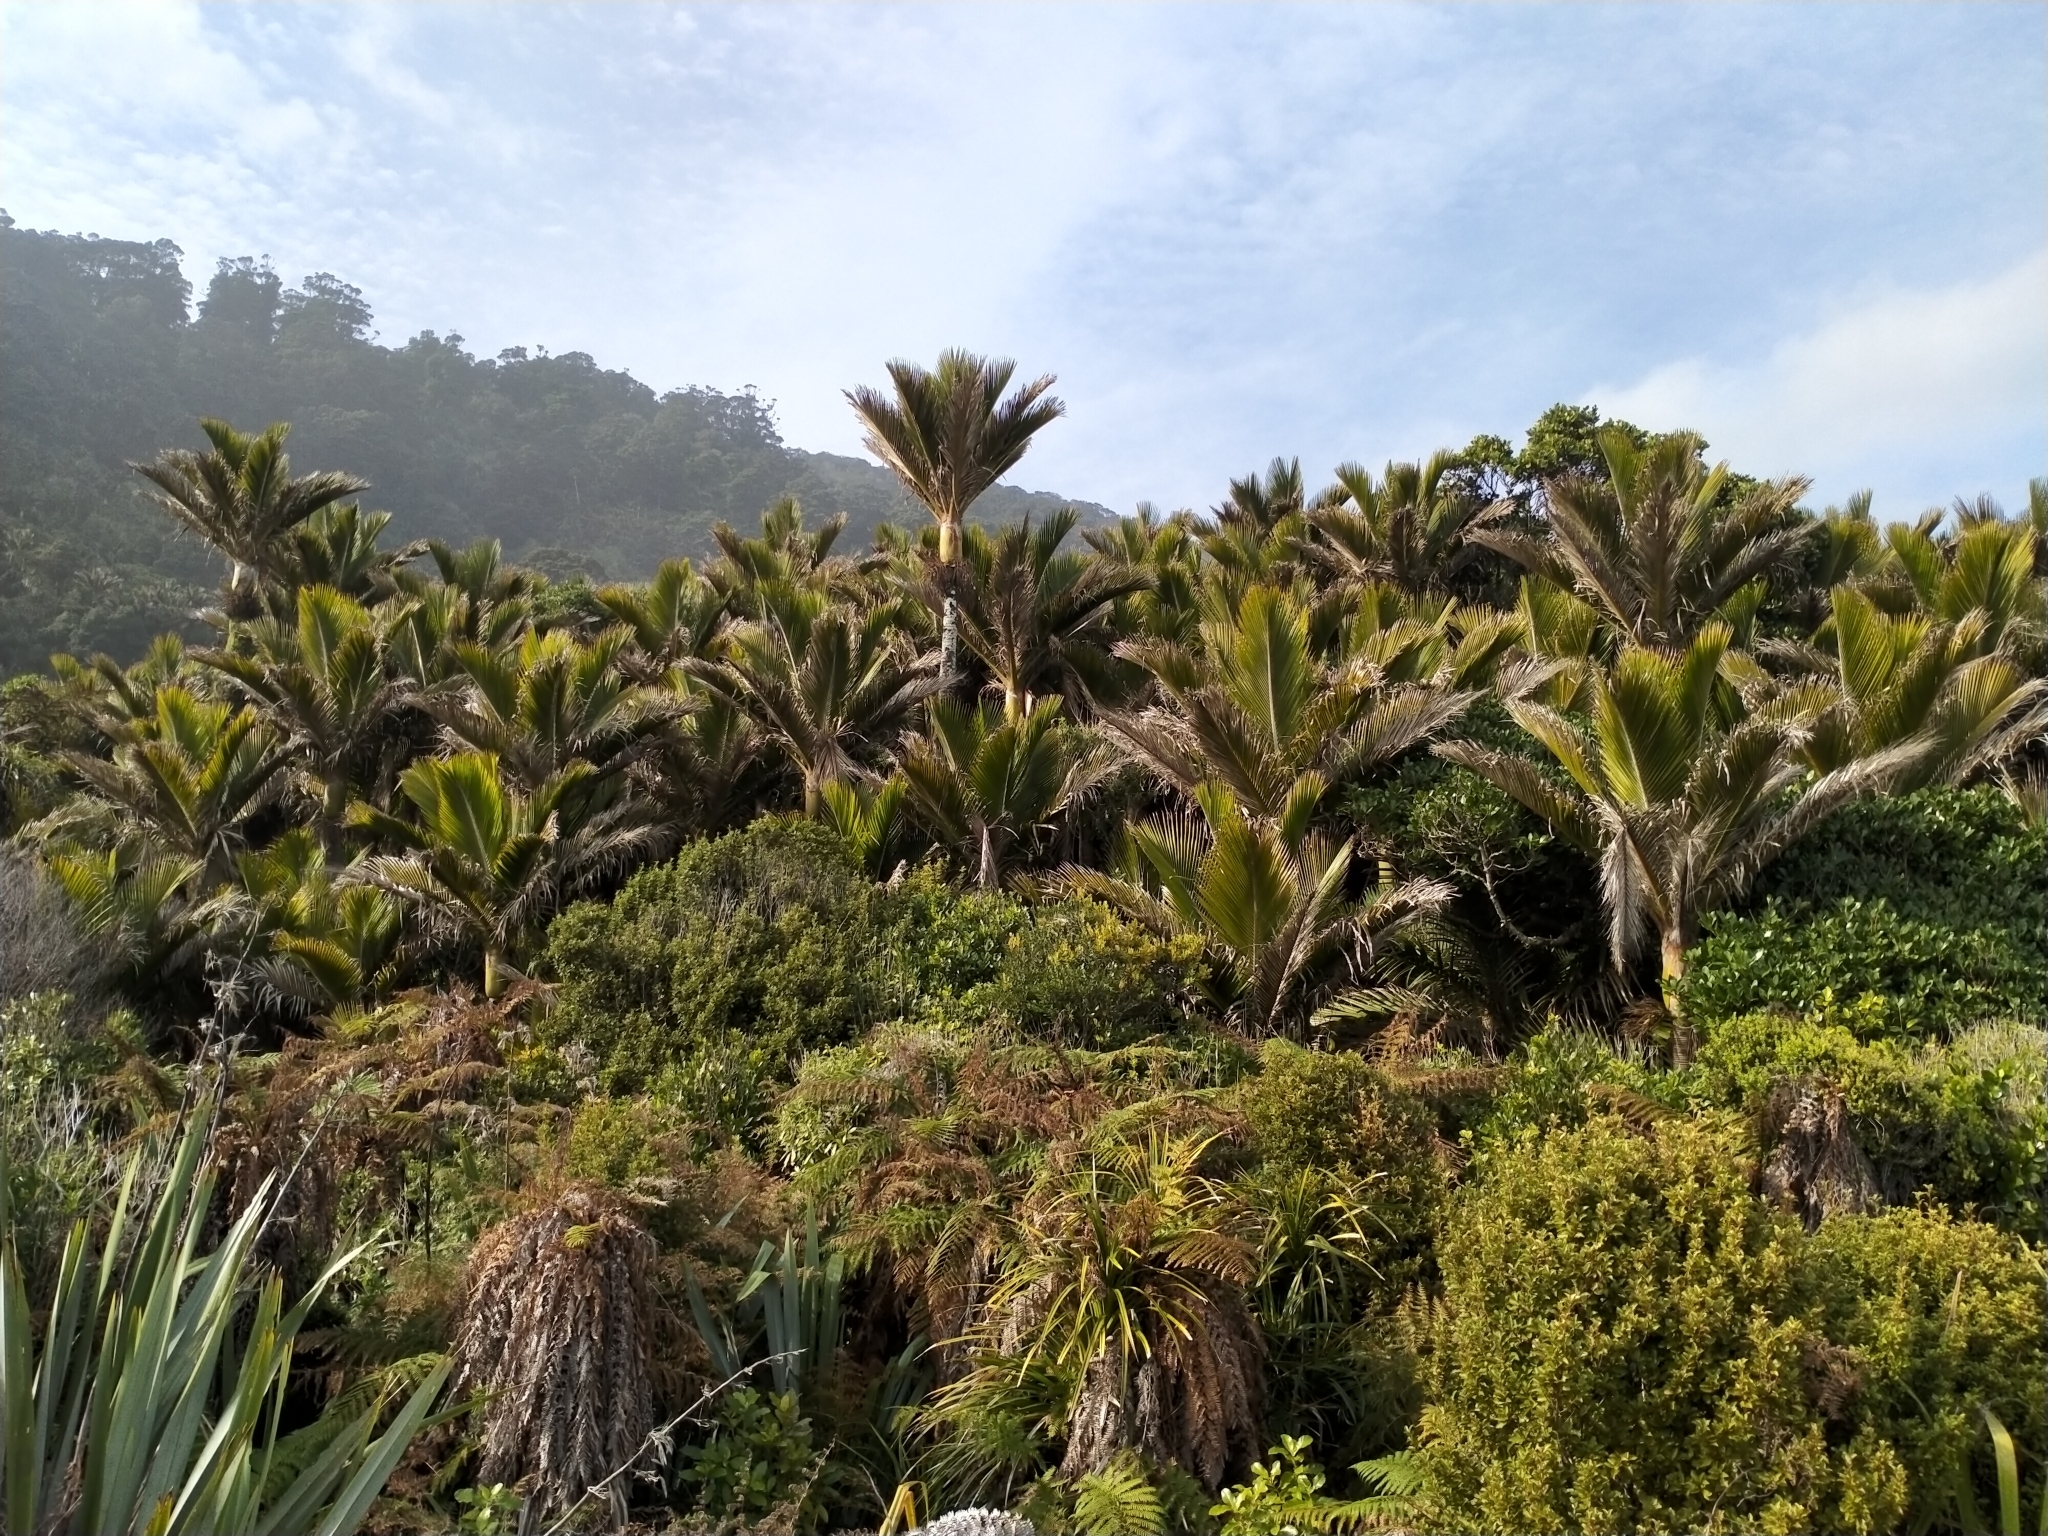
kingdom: Plantae
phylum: Tracheophyta
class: Liliopsida
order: Arecales
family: Arecaceae
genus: Rhopalostylis
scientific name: Rhopalostylis sapida
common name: Feather-duster palm
